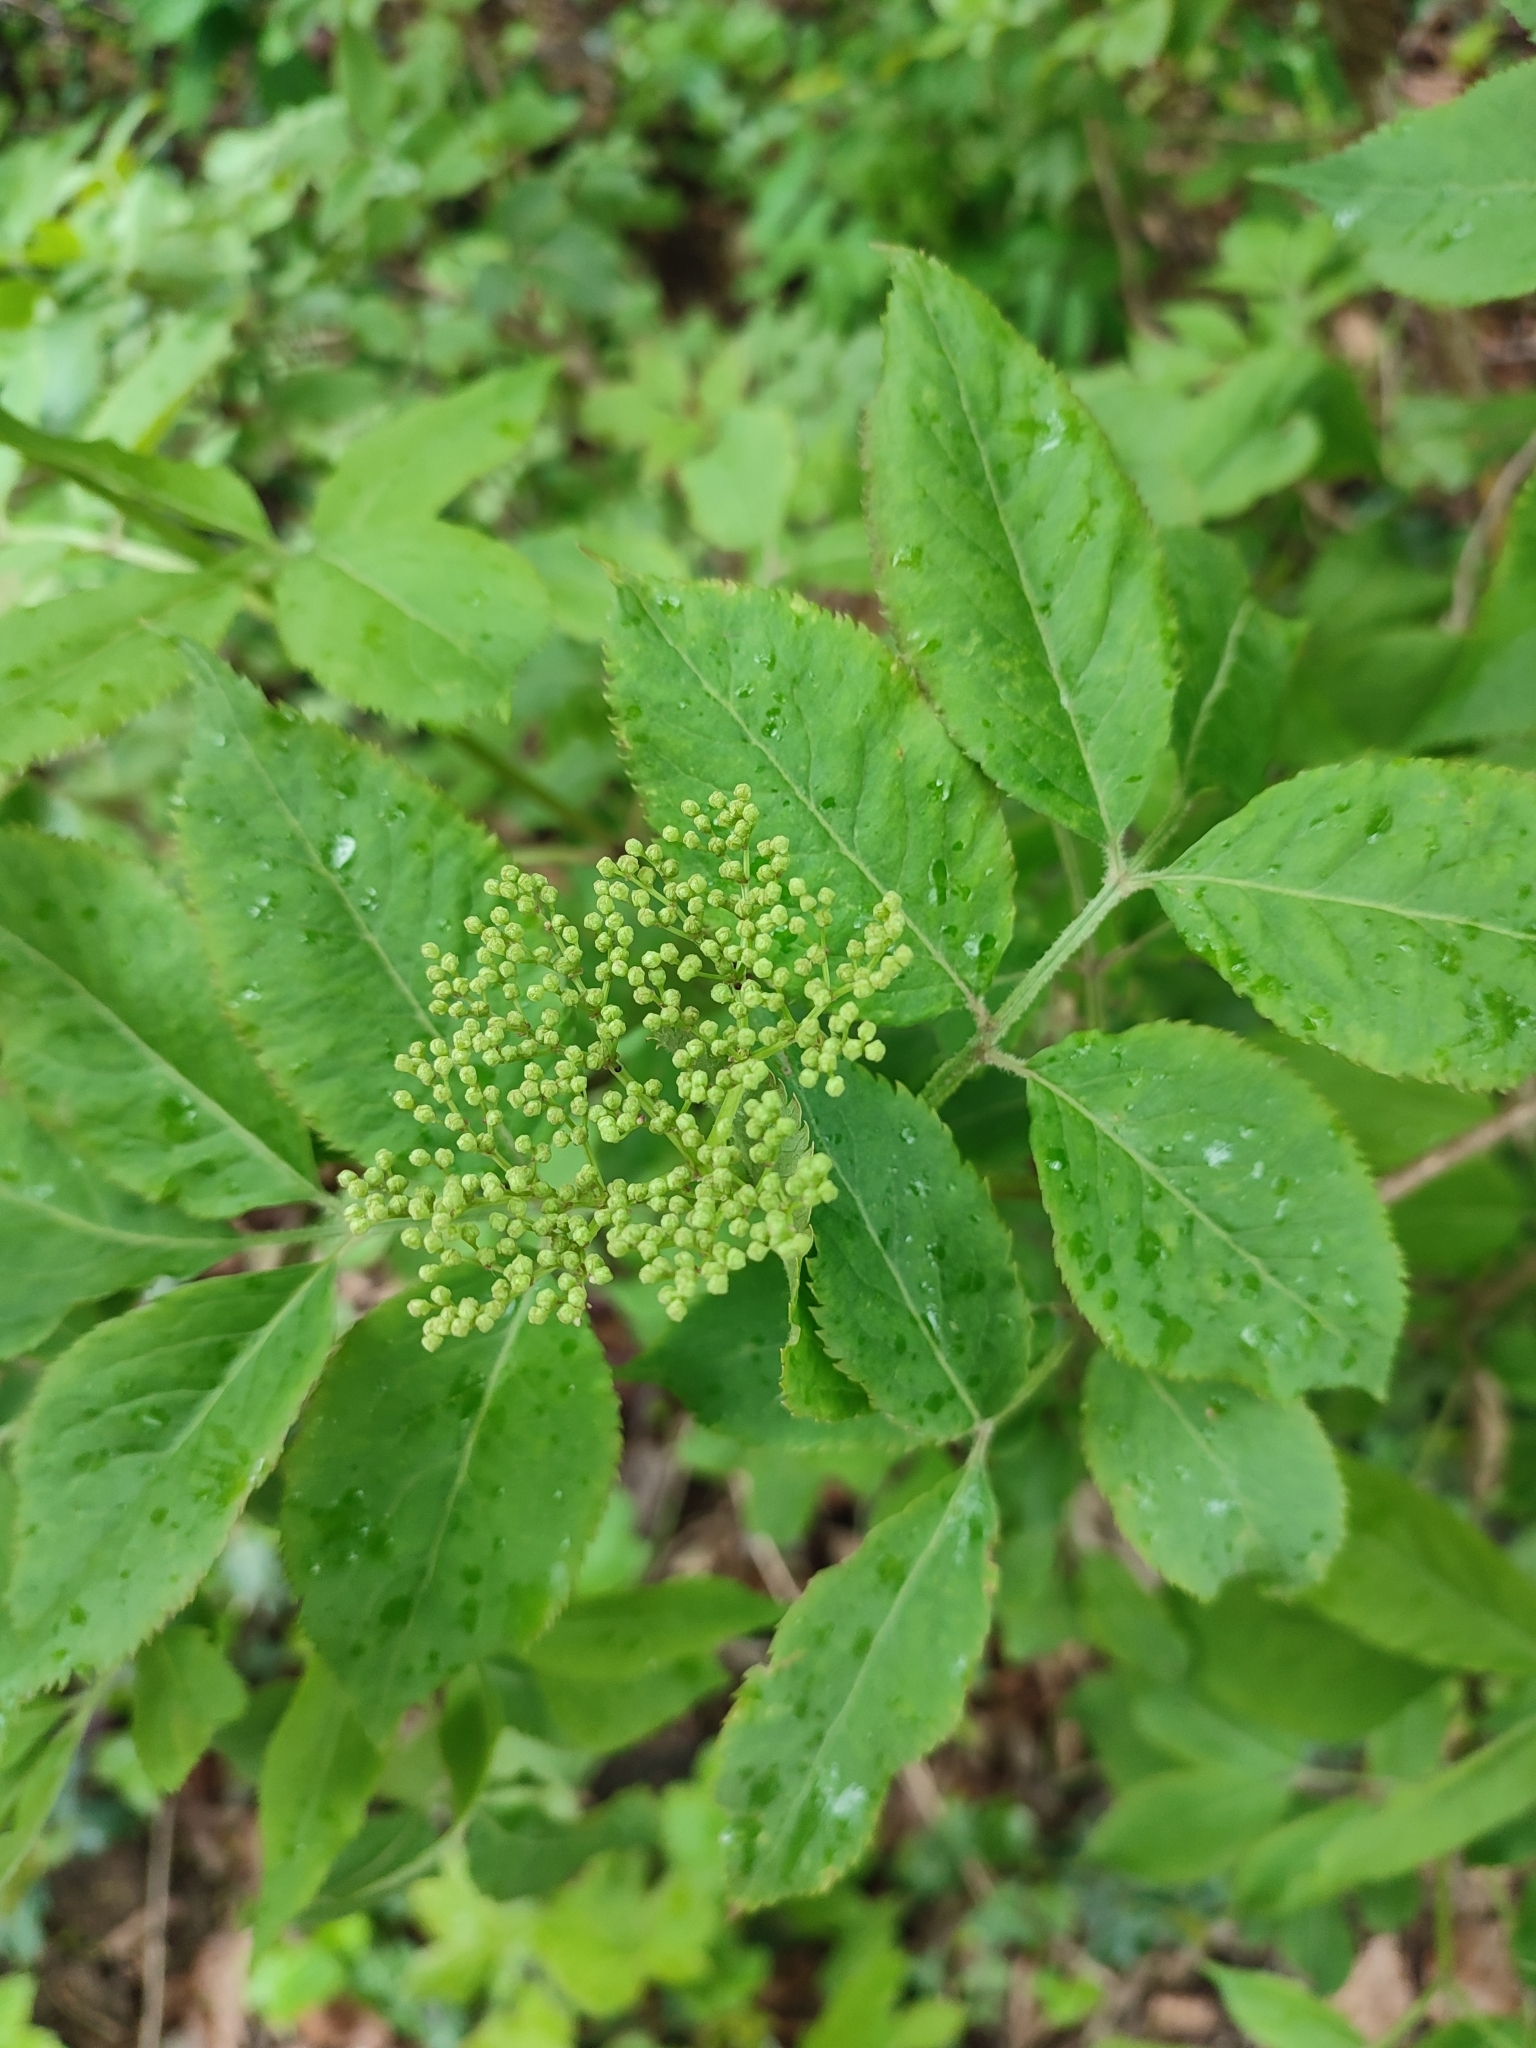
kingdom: Plantae
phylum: Tracheophyta
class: Magnoliopsida
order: Dipsacales
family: Viburnaceae
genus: Sambucus
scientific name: Sambucus nigra
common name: Elder
